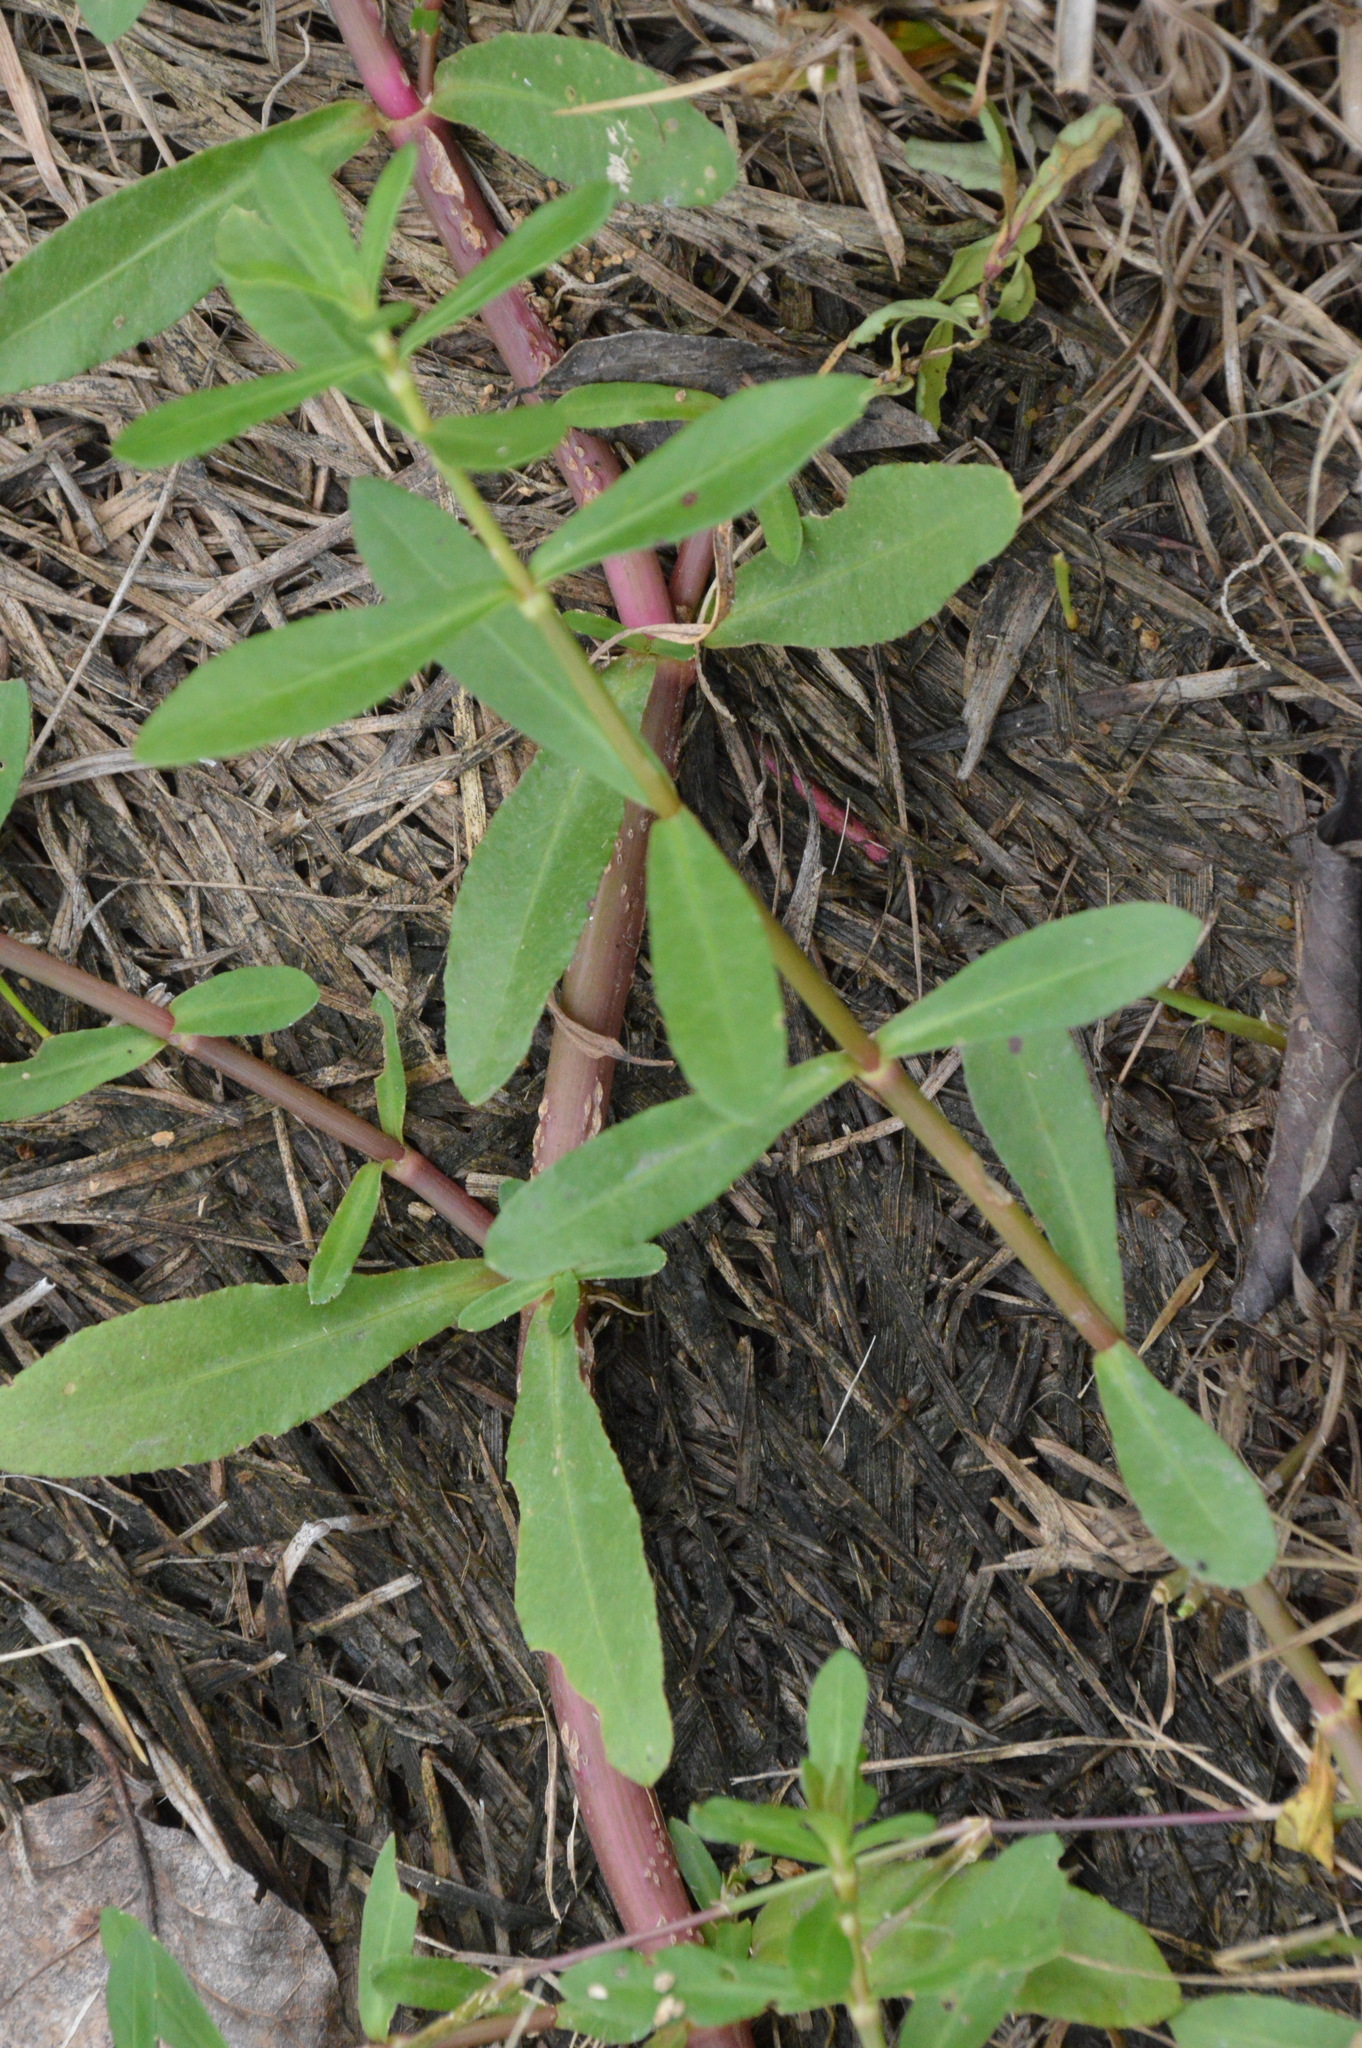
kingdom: Plantae
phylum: Tracheophyta
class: Magnoliopsida
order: Caryophyllales
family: Amaranthaceae
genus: Alternanthera
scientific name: Alternanthera philoxeroides
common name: Alligatorweed
